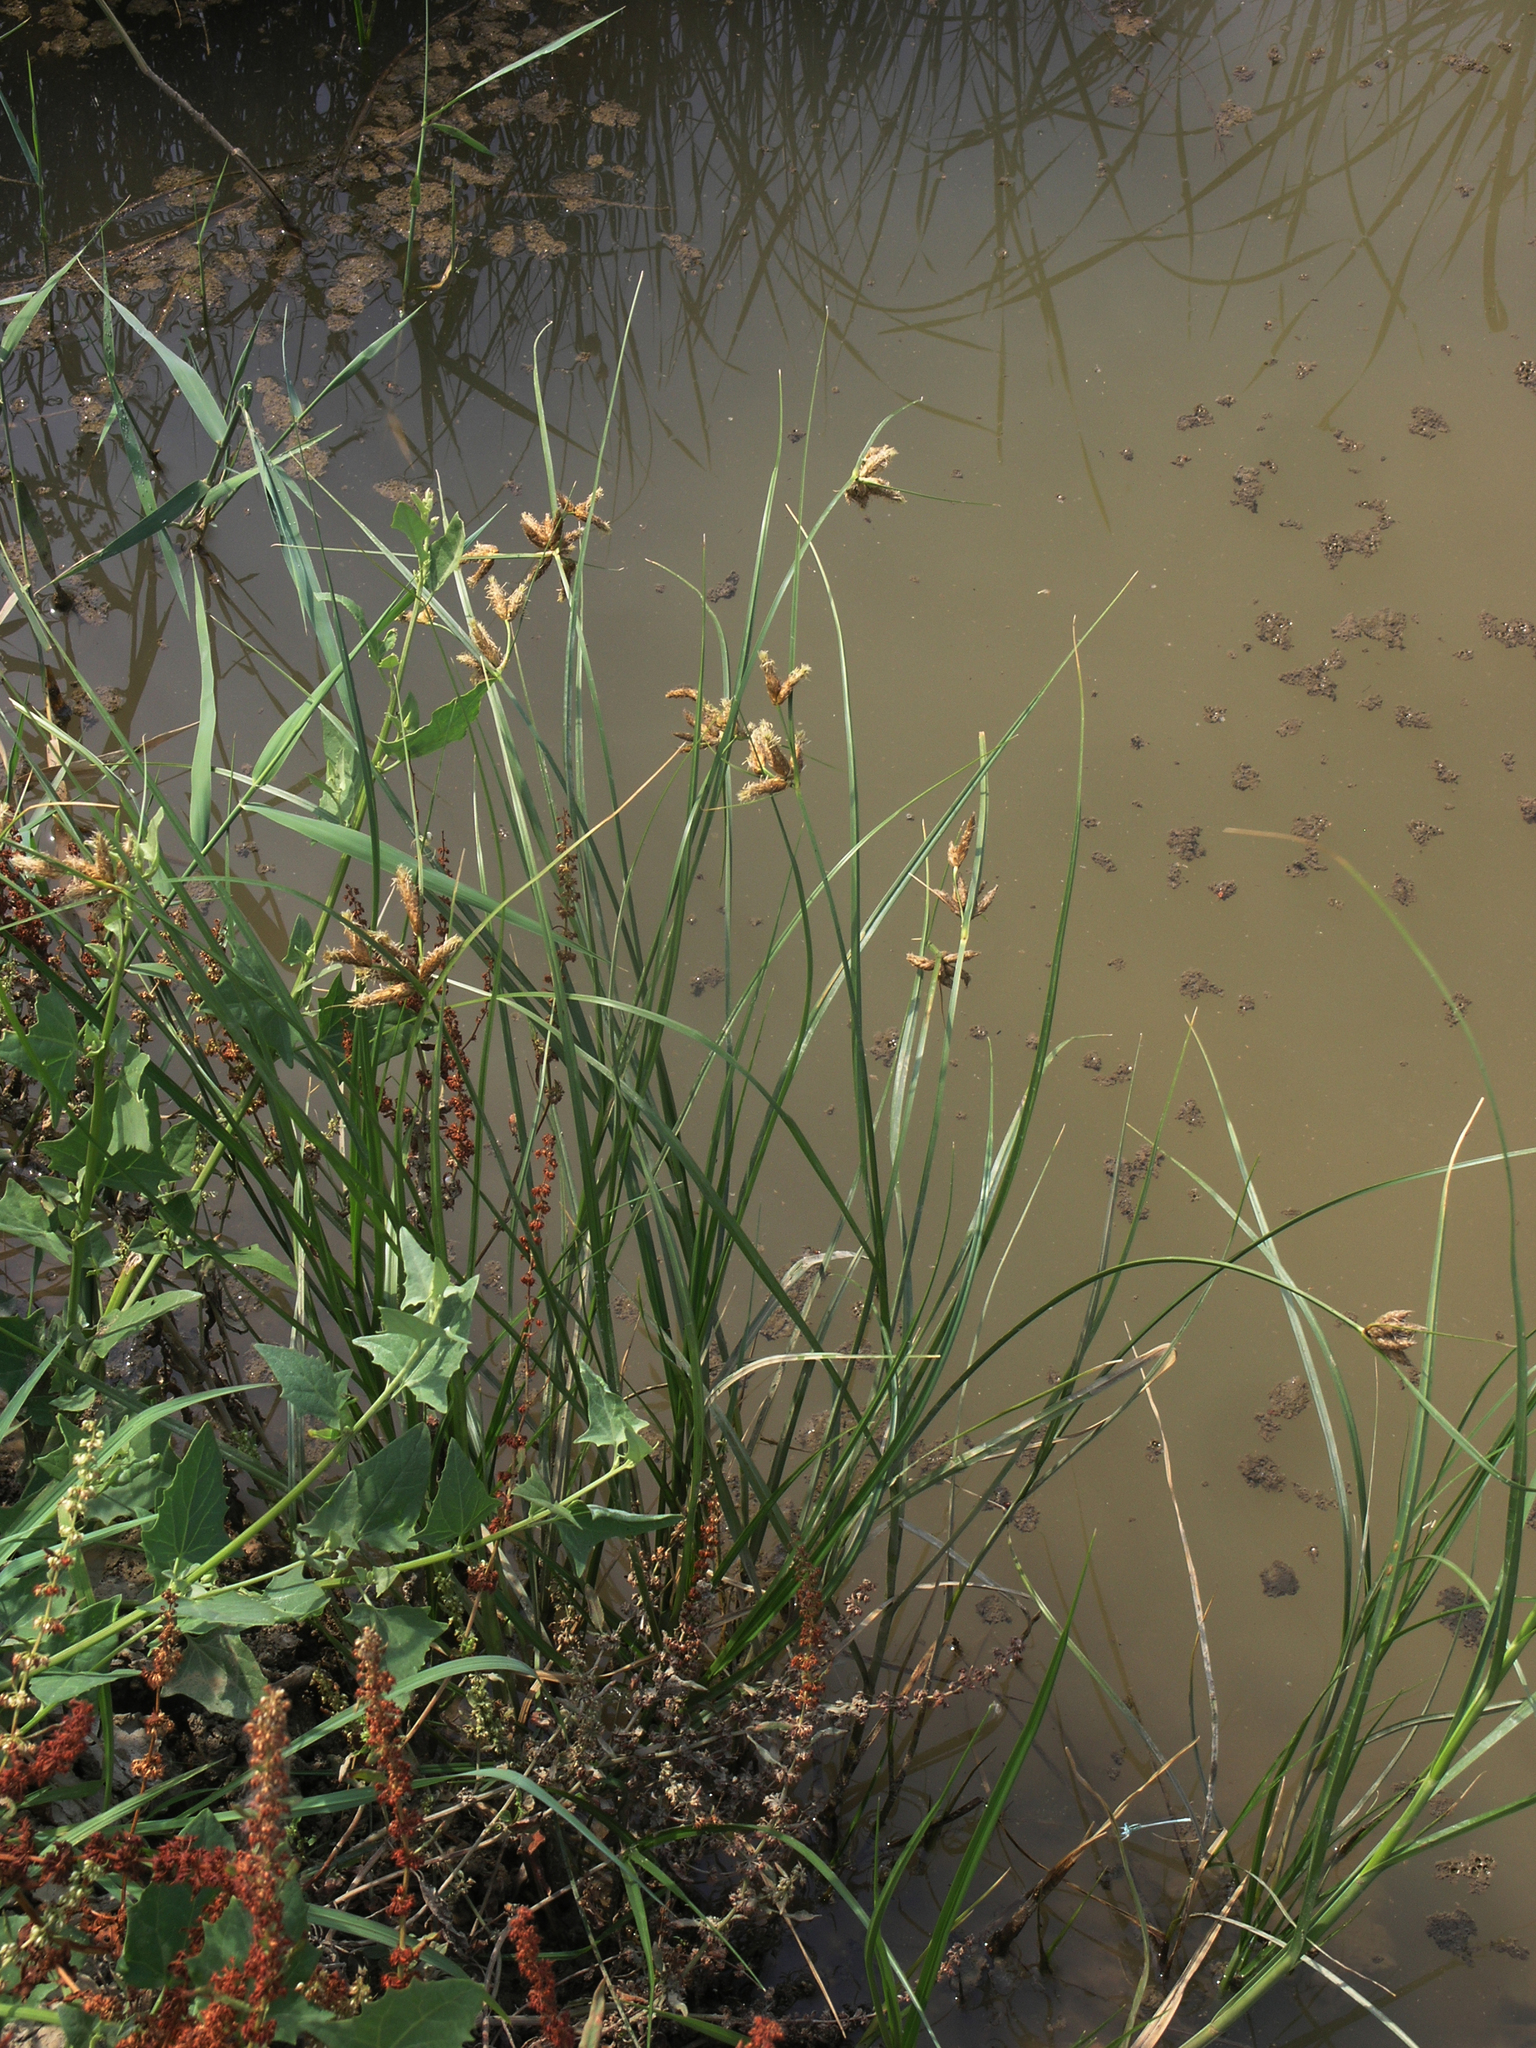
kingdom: Plantae
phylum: Tracheophyta
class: Liliopsida
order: Poales
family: Cyperaceae
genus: Bolboschoenus
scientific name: Bolboschoenus maritimus
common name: Sea club-rush
